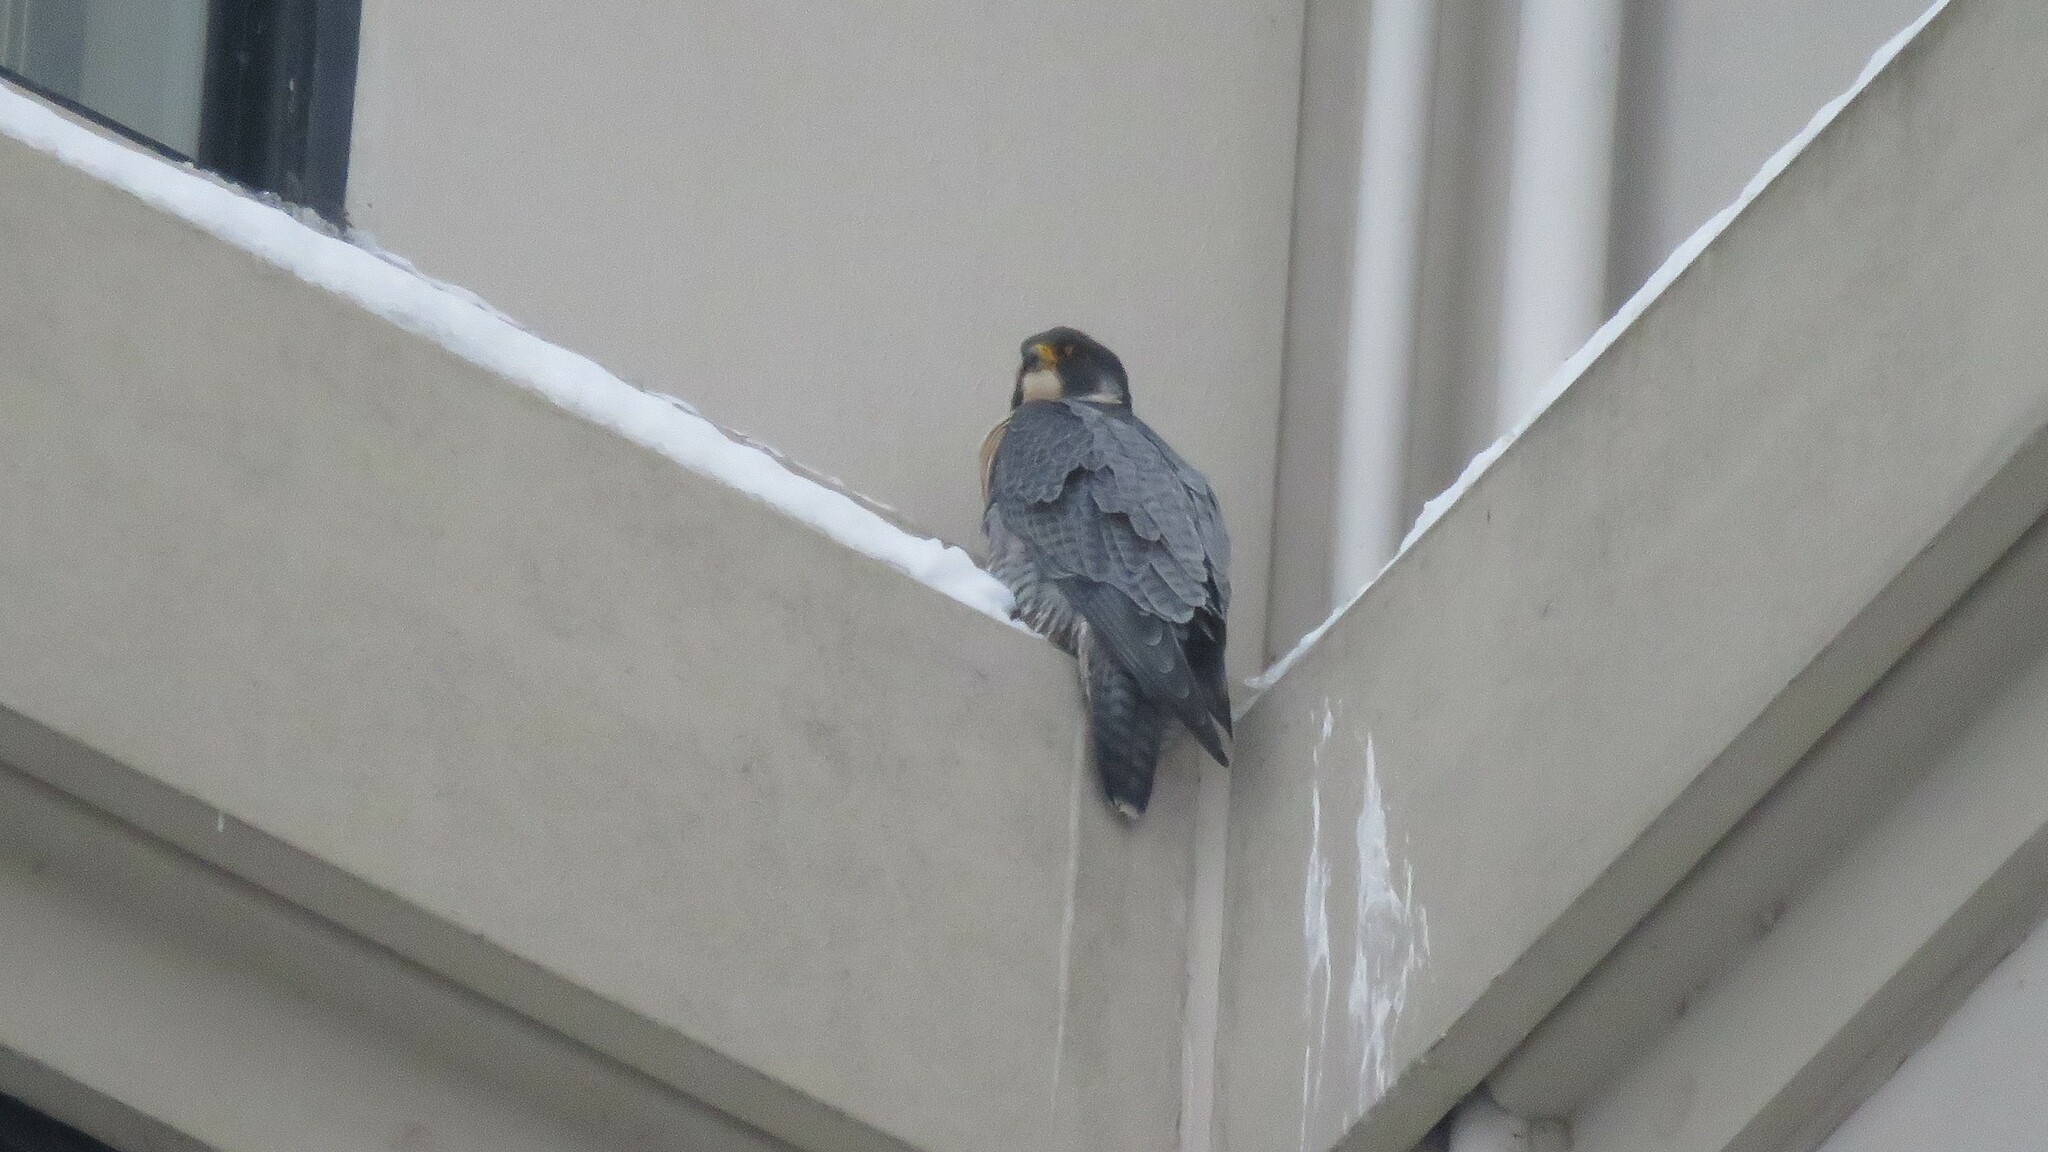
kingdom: Animalia
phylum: Chordata
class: Aves
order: Falconiformes
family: Falconidae
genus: Falco
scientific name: Falco peregrinus
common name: Peregrine falcon
